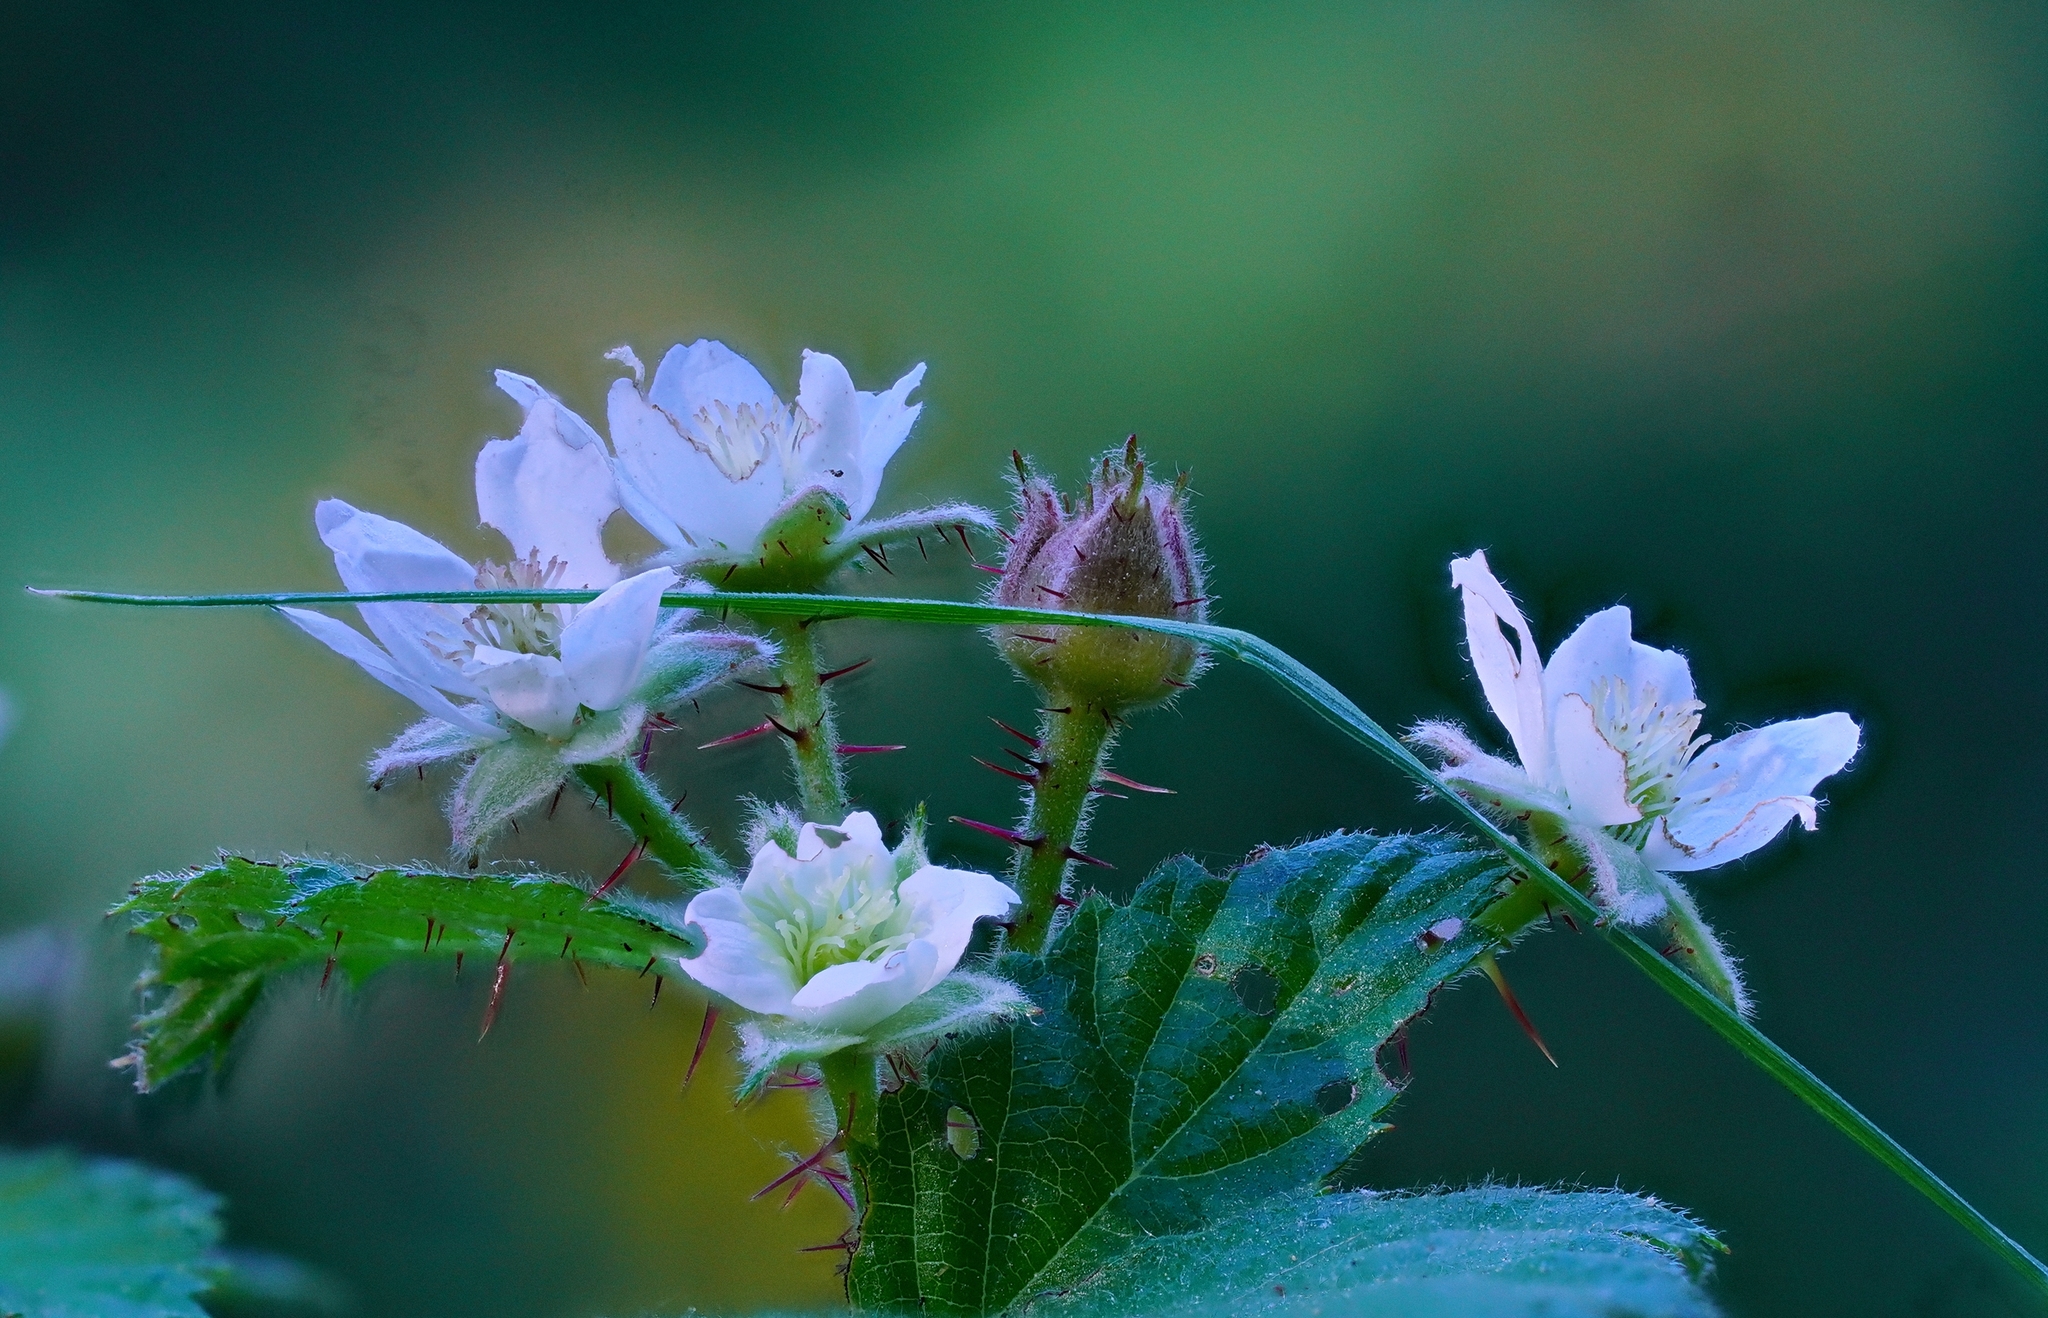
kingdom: Plantae
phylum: Tracheophyta
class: Magnoliopsida
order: Rosales
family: Rosaceae
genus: Rubus
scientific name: Rubus ursinus
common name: Pacific blackberry
